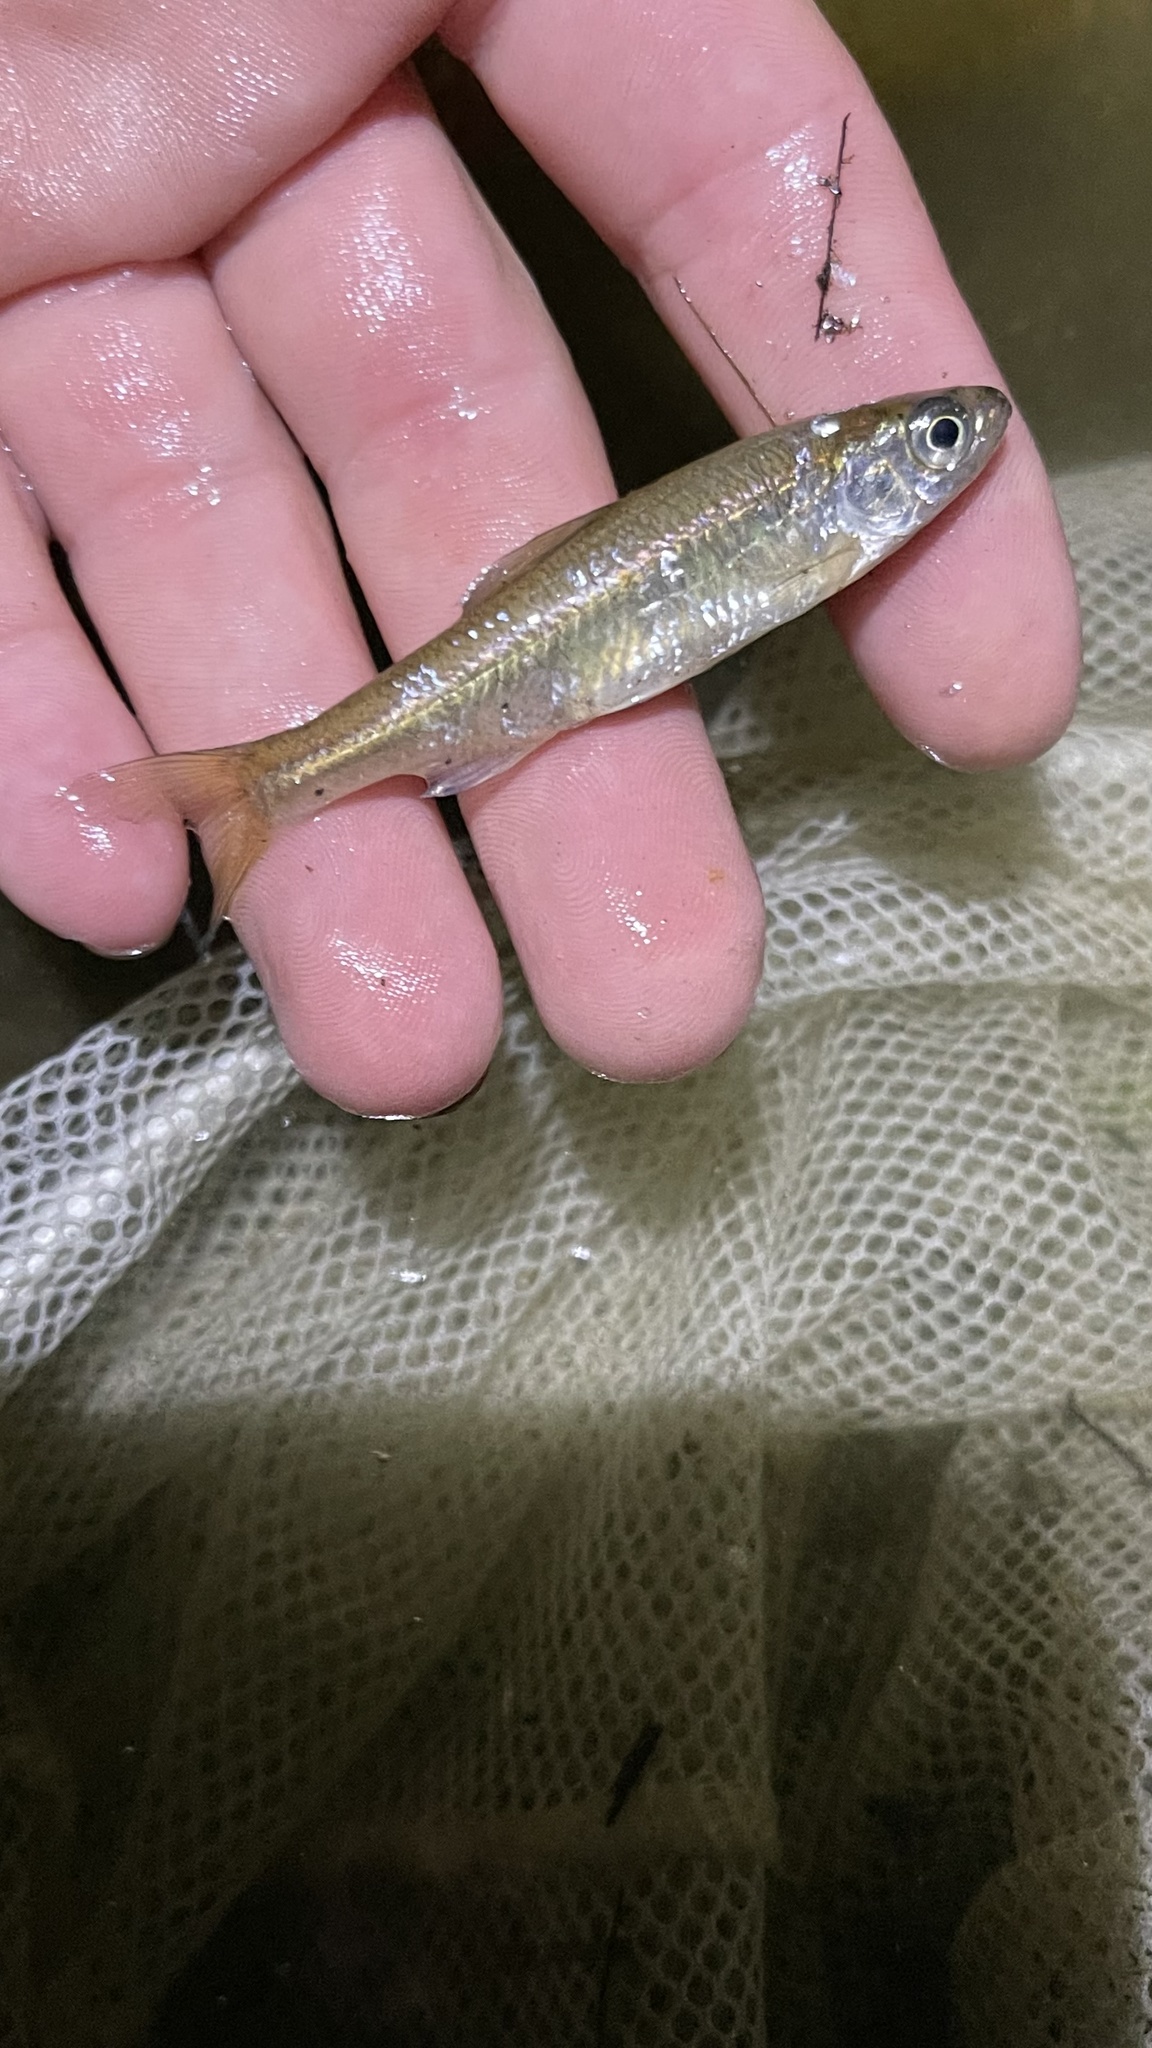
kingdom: Animalia
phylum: Chordata
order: Cypriniformes
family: Cyprinidae
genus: Luxilus
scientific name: Luxilus cornutus
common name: Common shiner
